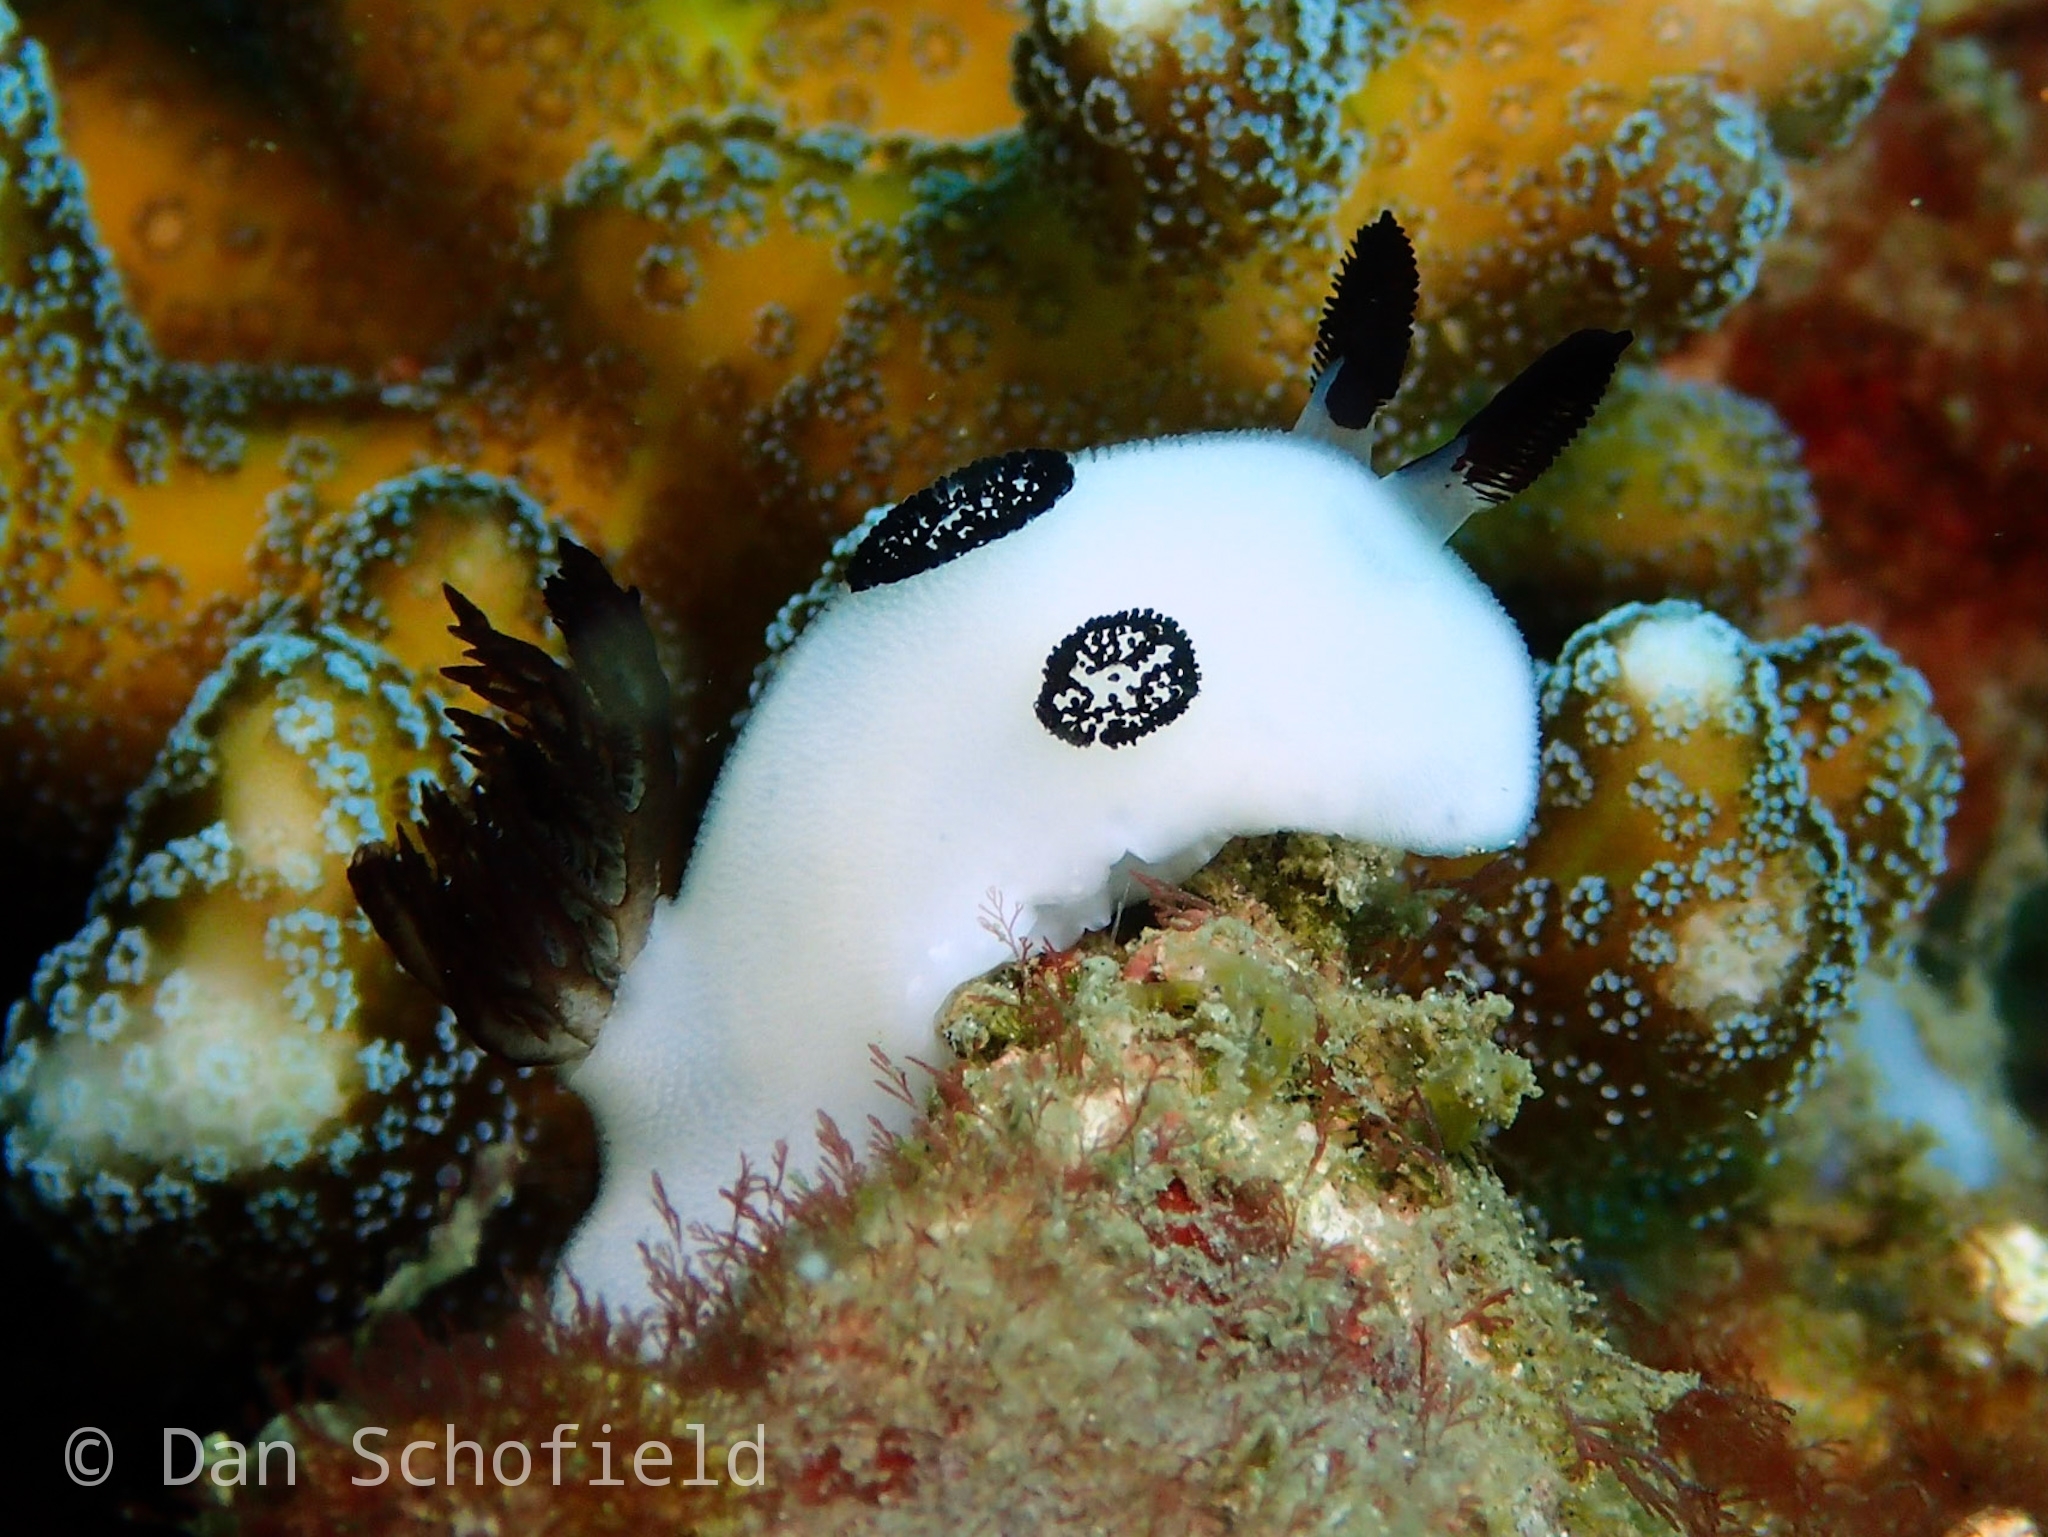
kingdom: Animalia
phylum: Mollusca
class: Gastropoda
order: Nudibranchia
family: Discodorididae
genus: Jorunna
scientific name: Jorunna funebris
